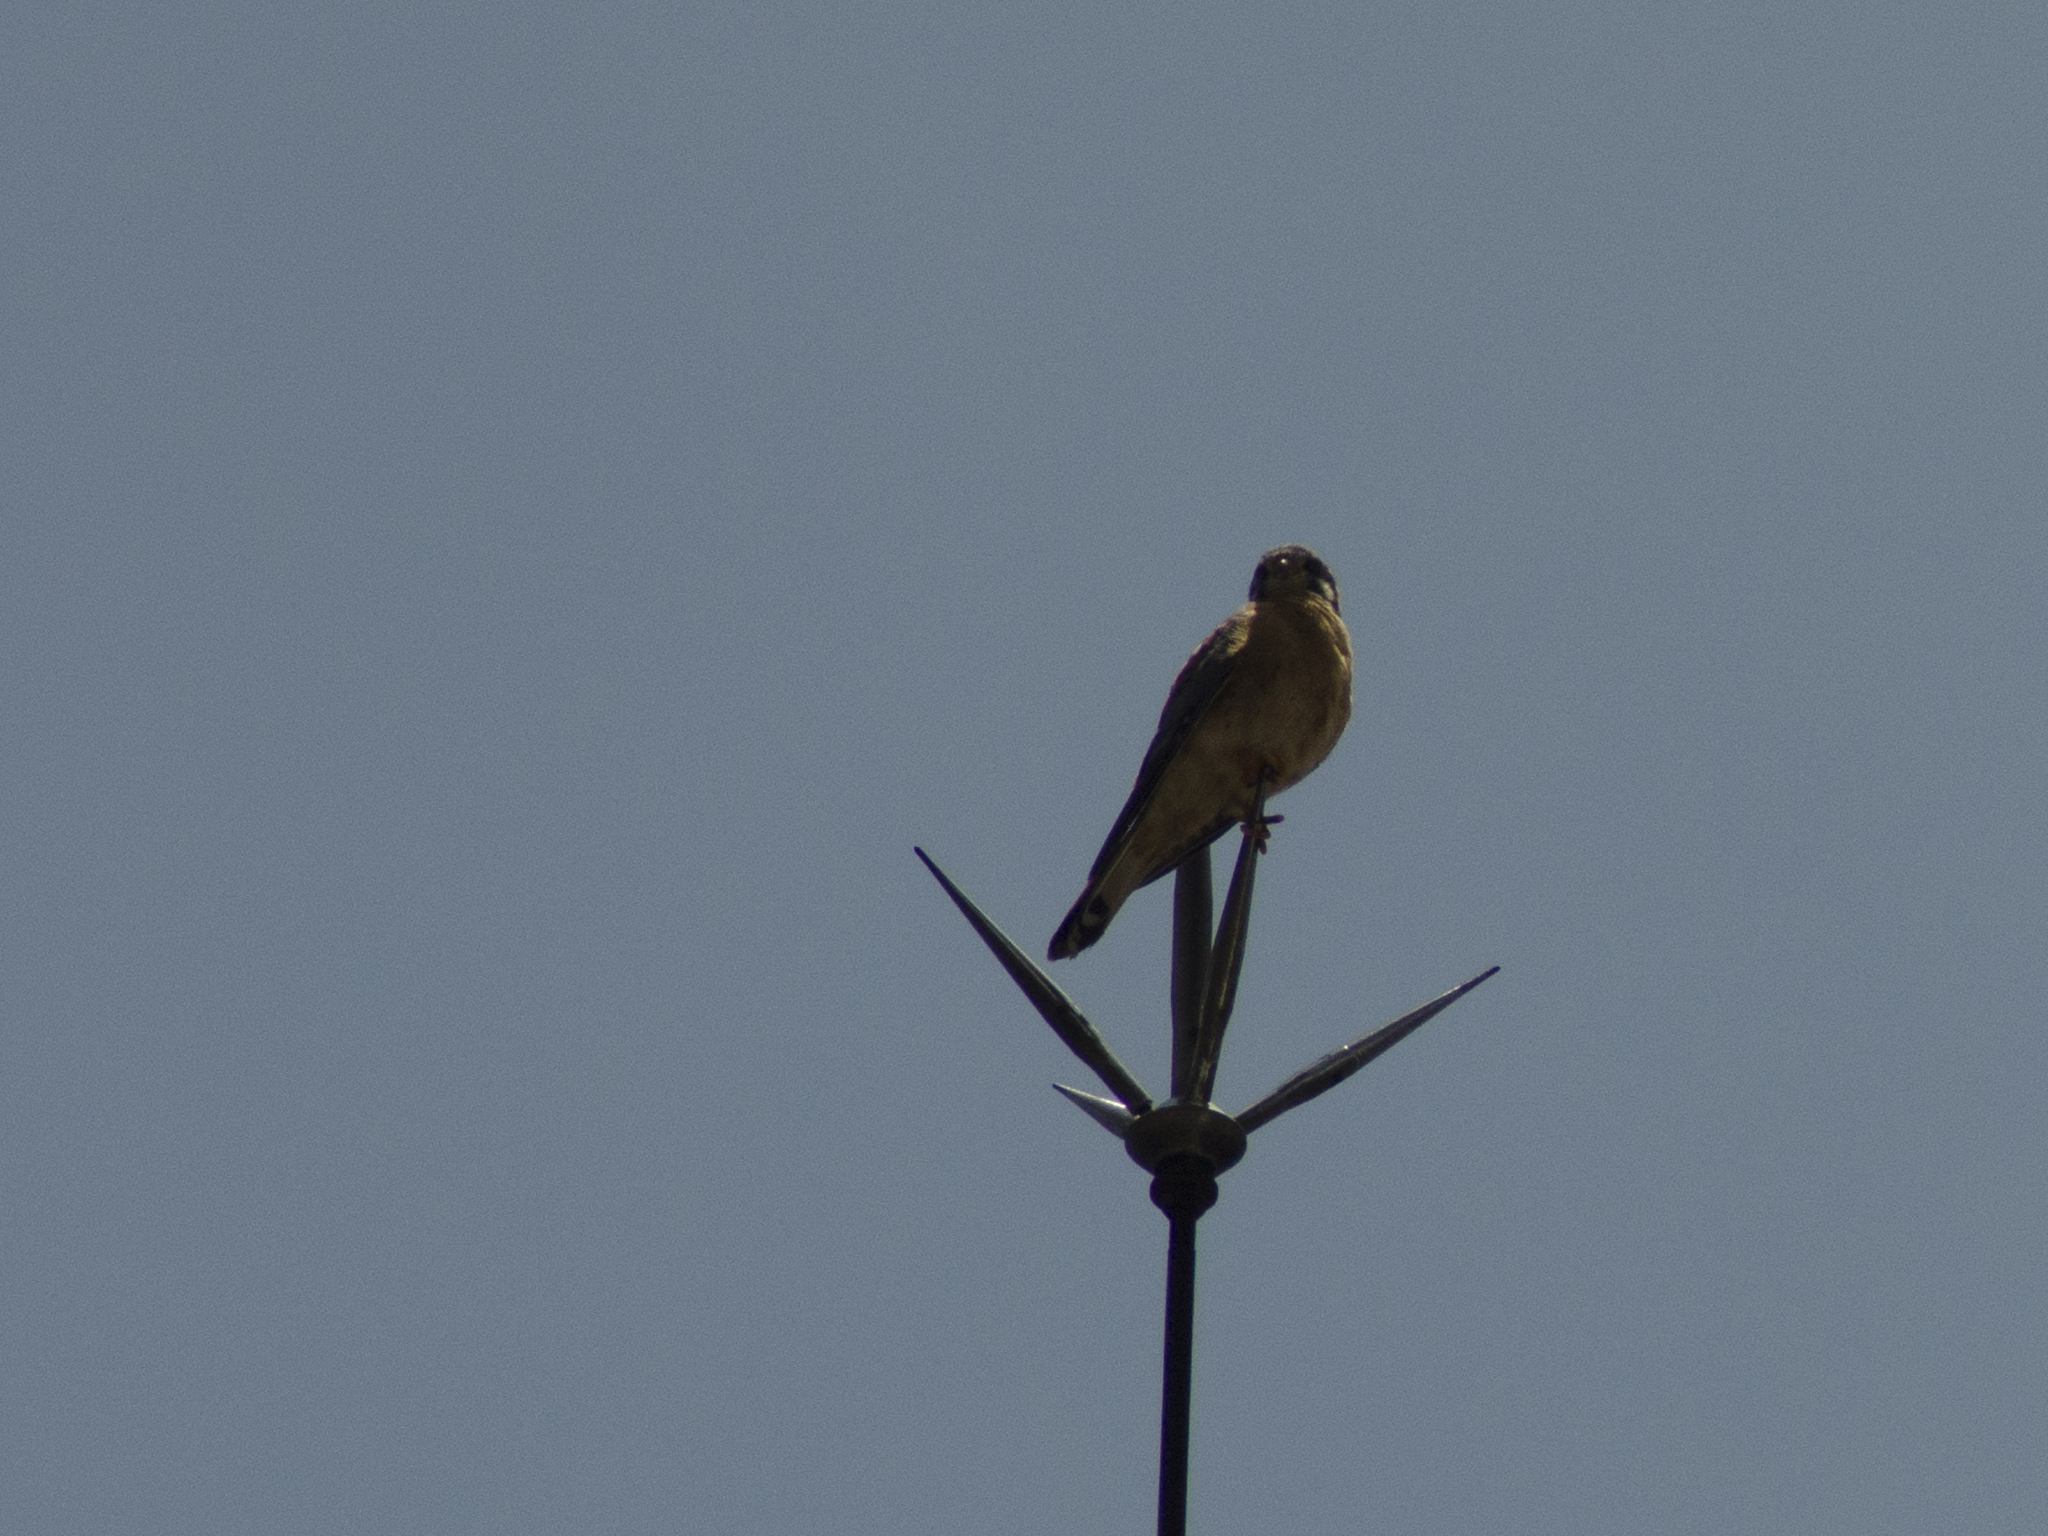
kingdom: Animalia
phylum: Chordata
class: Aves
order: Falconiformes
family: Falconidae
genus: Falco
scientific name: Falco sparverius
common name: American kestrel
